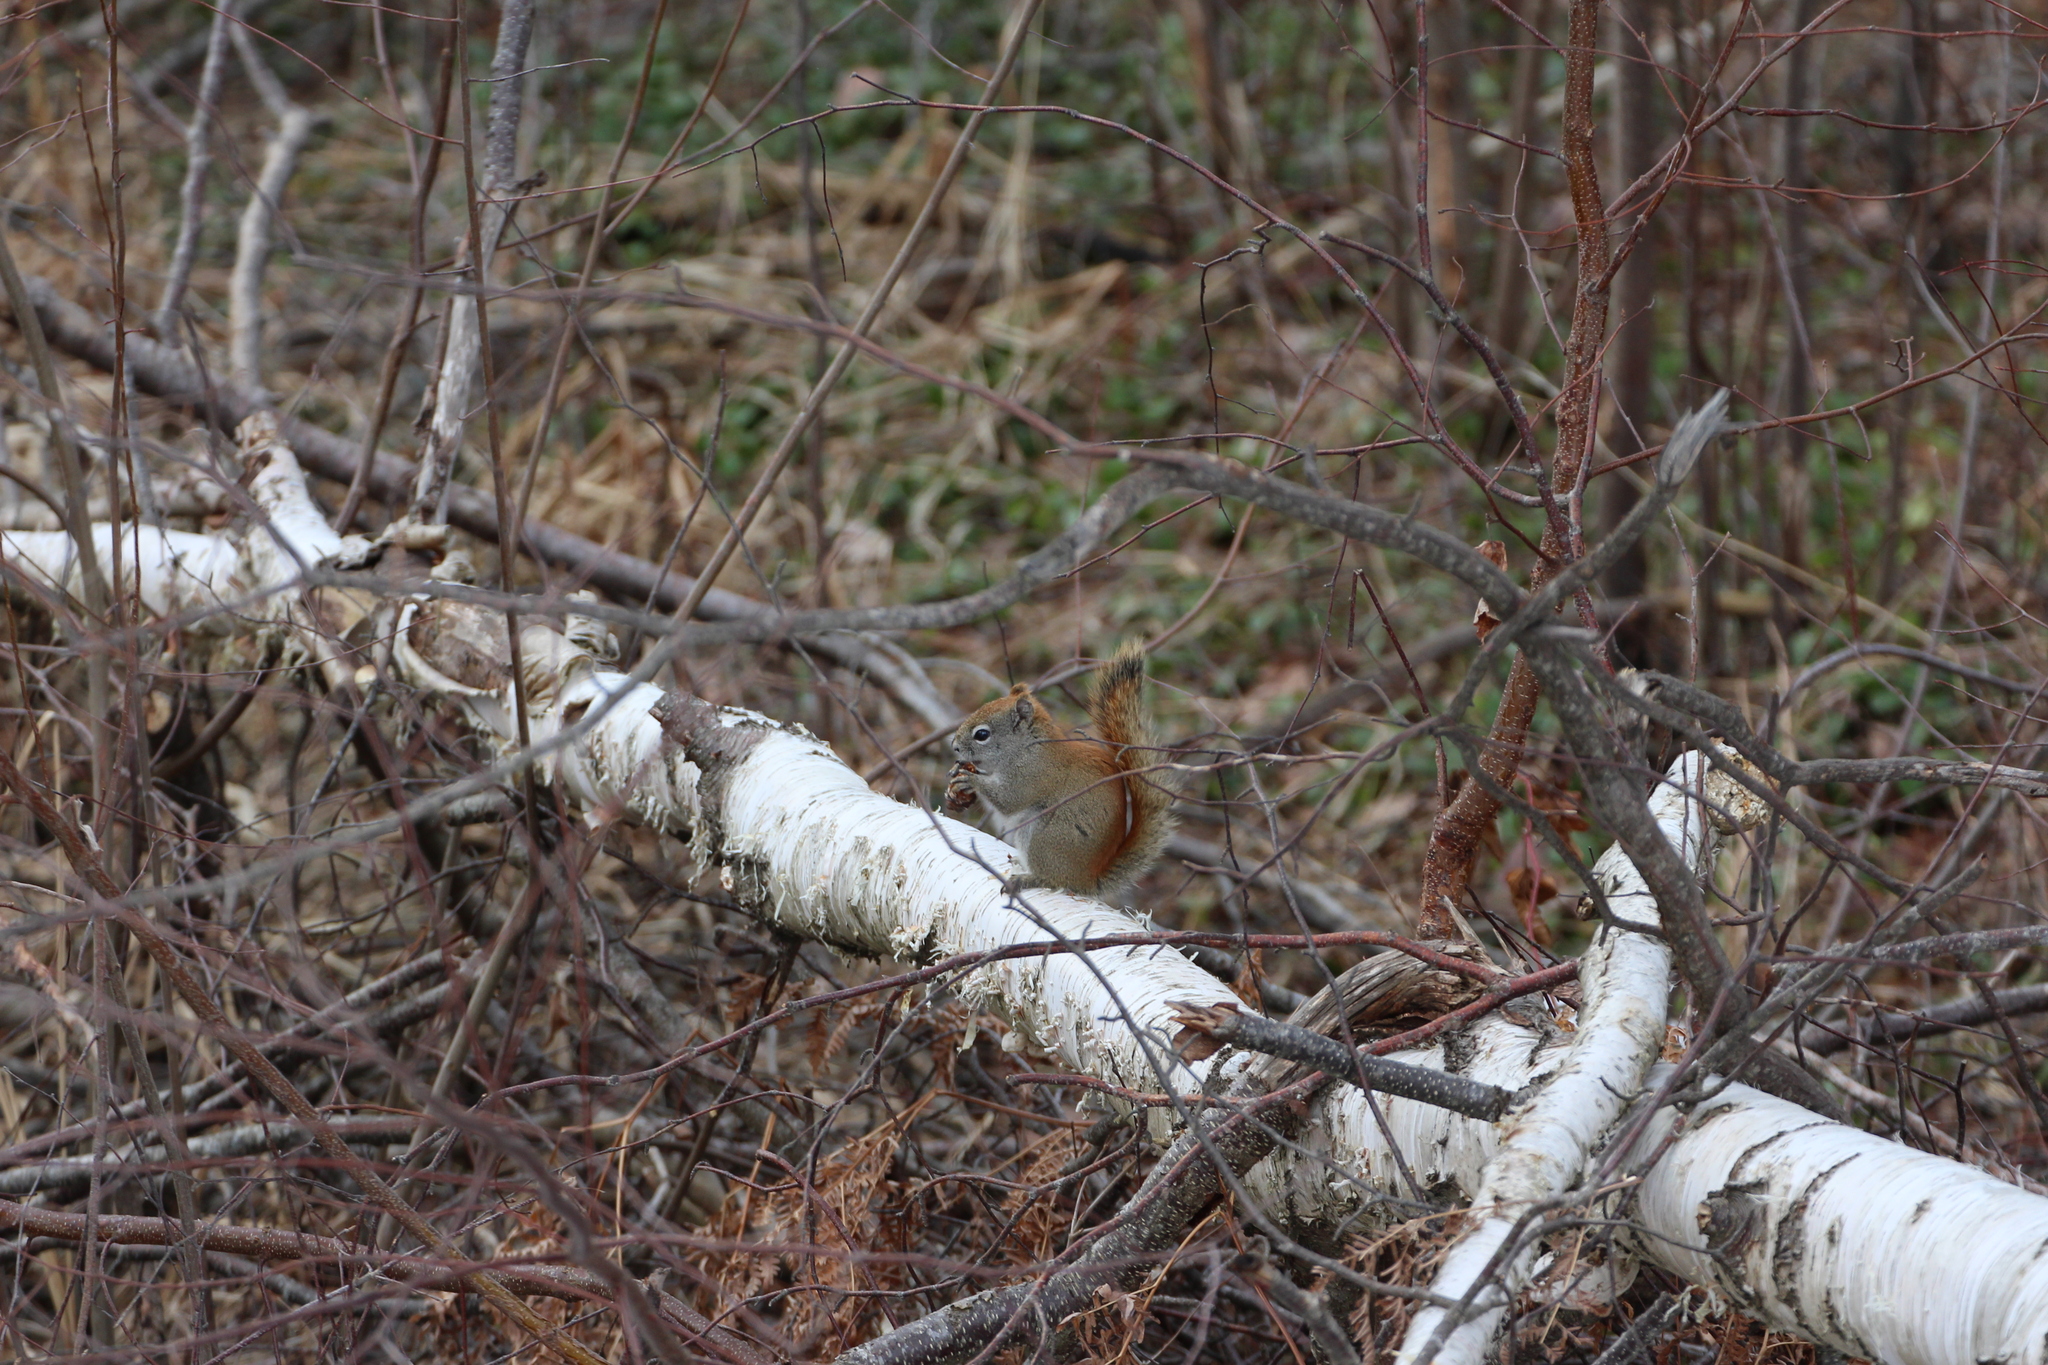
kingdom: Animalia
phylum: Chordata
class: Mammalia
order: Rodentia
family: Sciuridae
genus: Tamiasciurus
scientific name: Tamiasciurus hudsonicus
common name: Red squirrel
